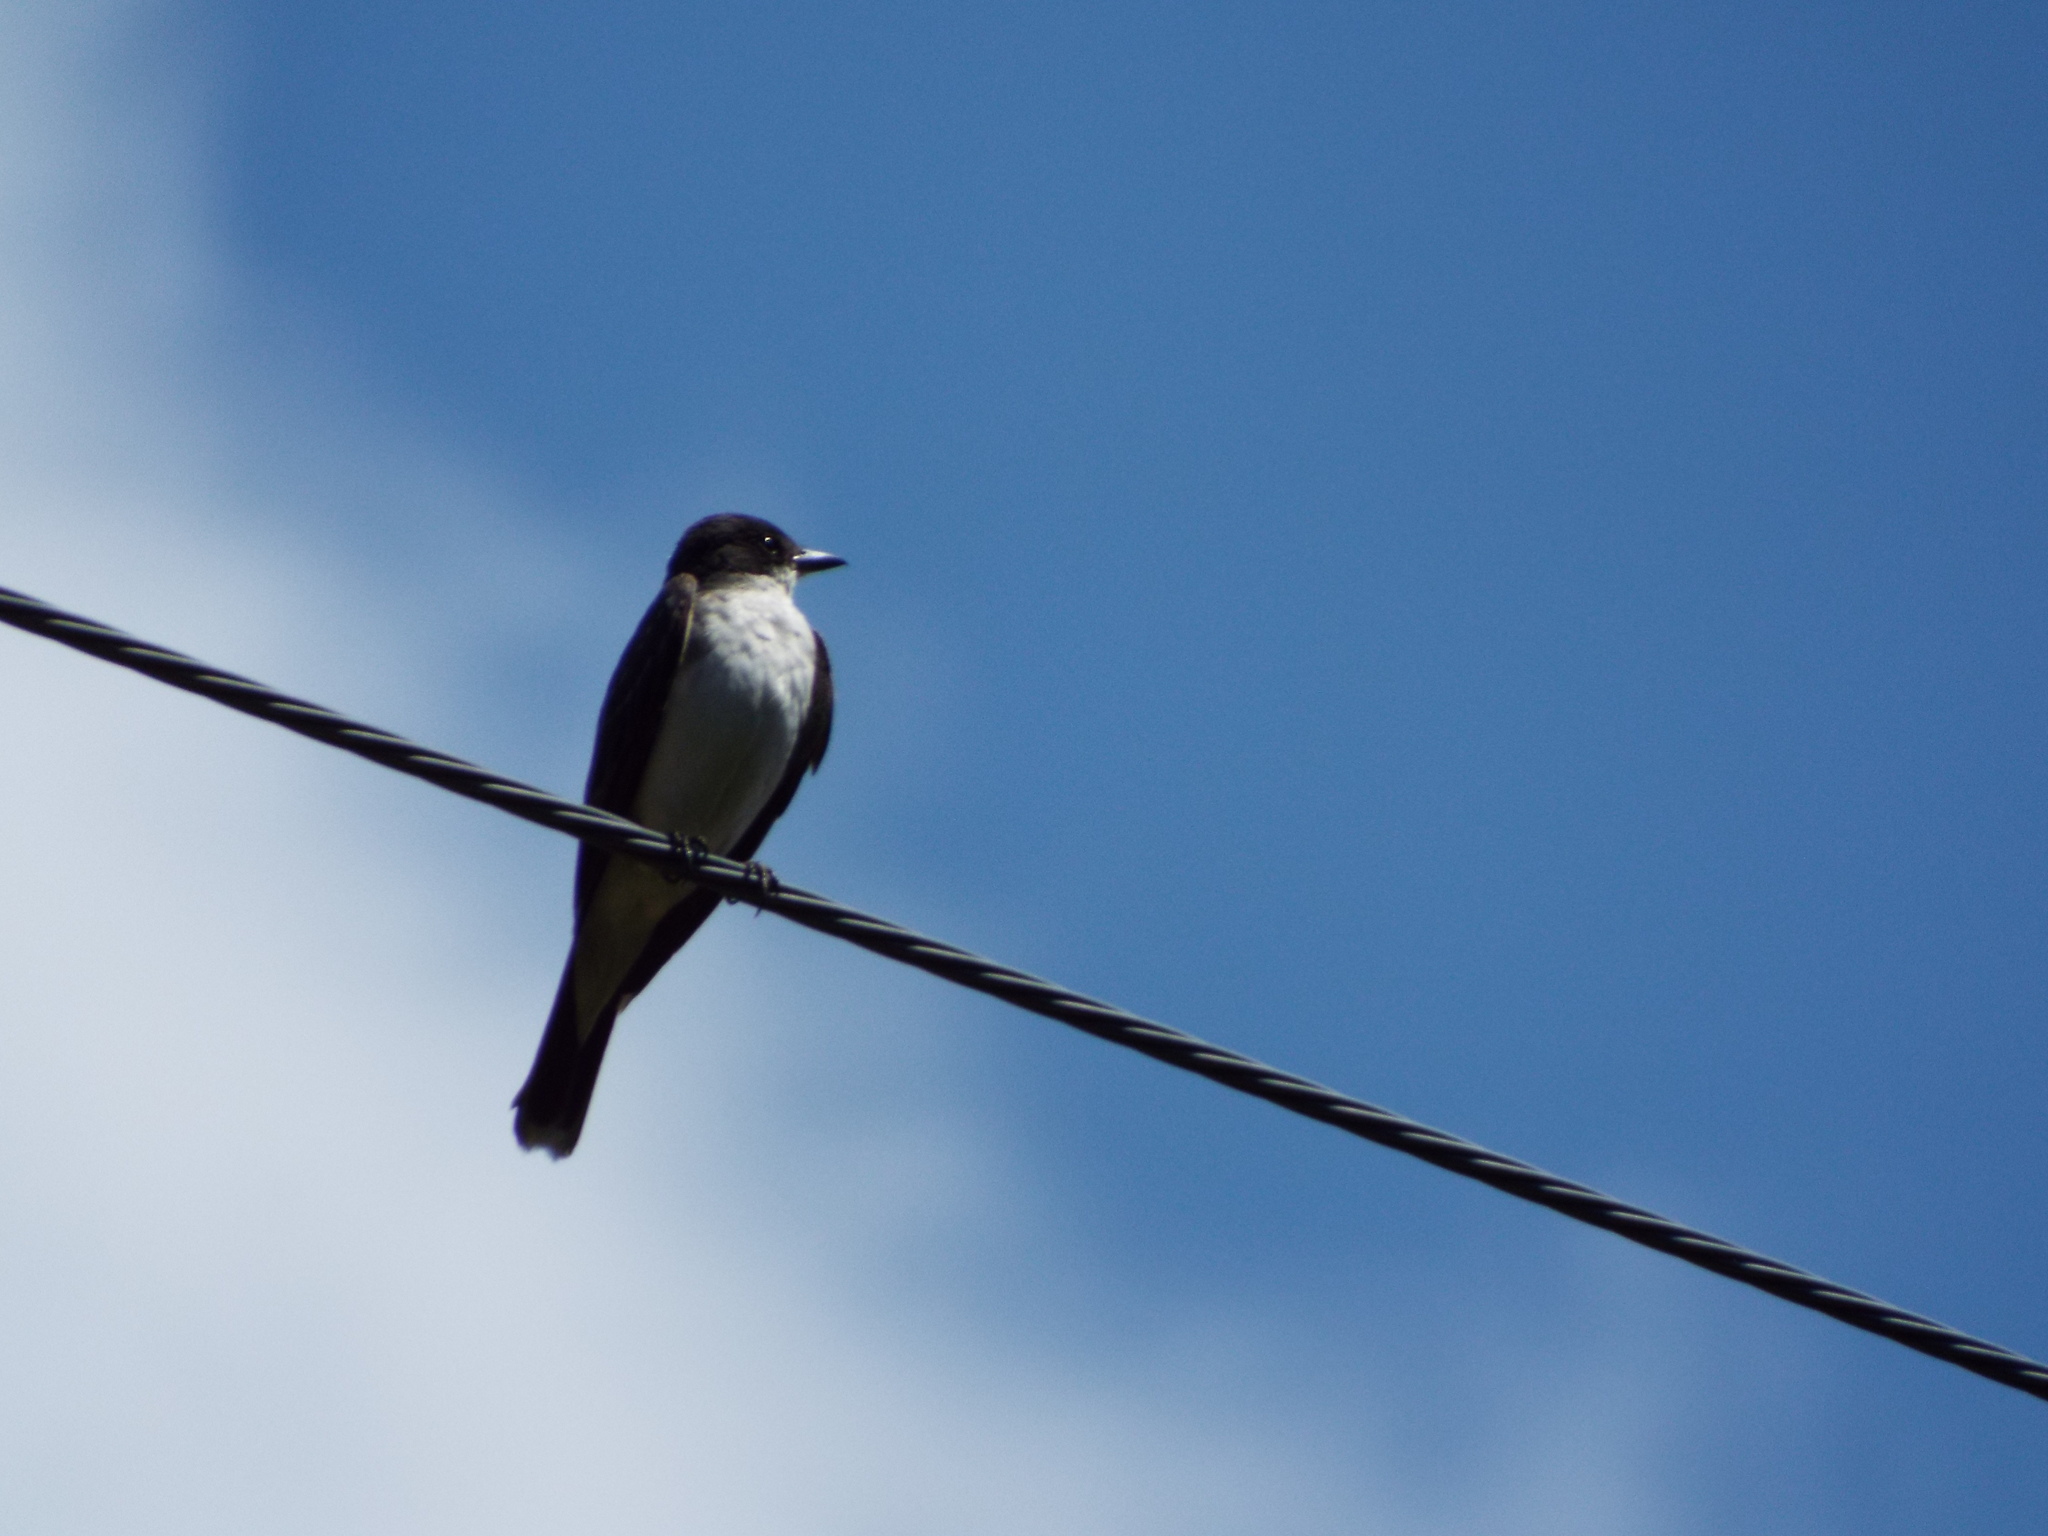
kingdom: Animalia
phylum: Chordata
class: Aves
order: Passeriformes
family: Tyrannidae
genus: Tyrannus
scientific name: Tyrannus tyrannus
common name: Eastern kingbird
